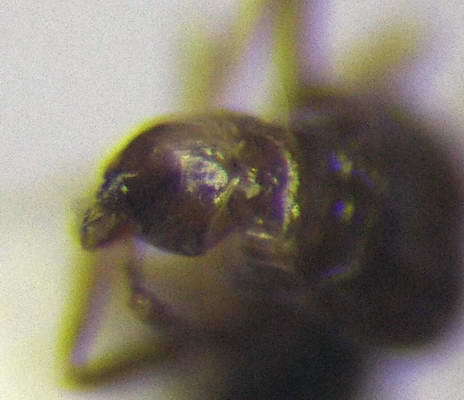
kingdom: Animalia
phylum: Arthropoda
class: Insecta
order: Hymenoptera
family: Formicidae
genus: Plagiolepis
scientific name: Plagiolepis pallescens
